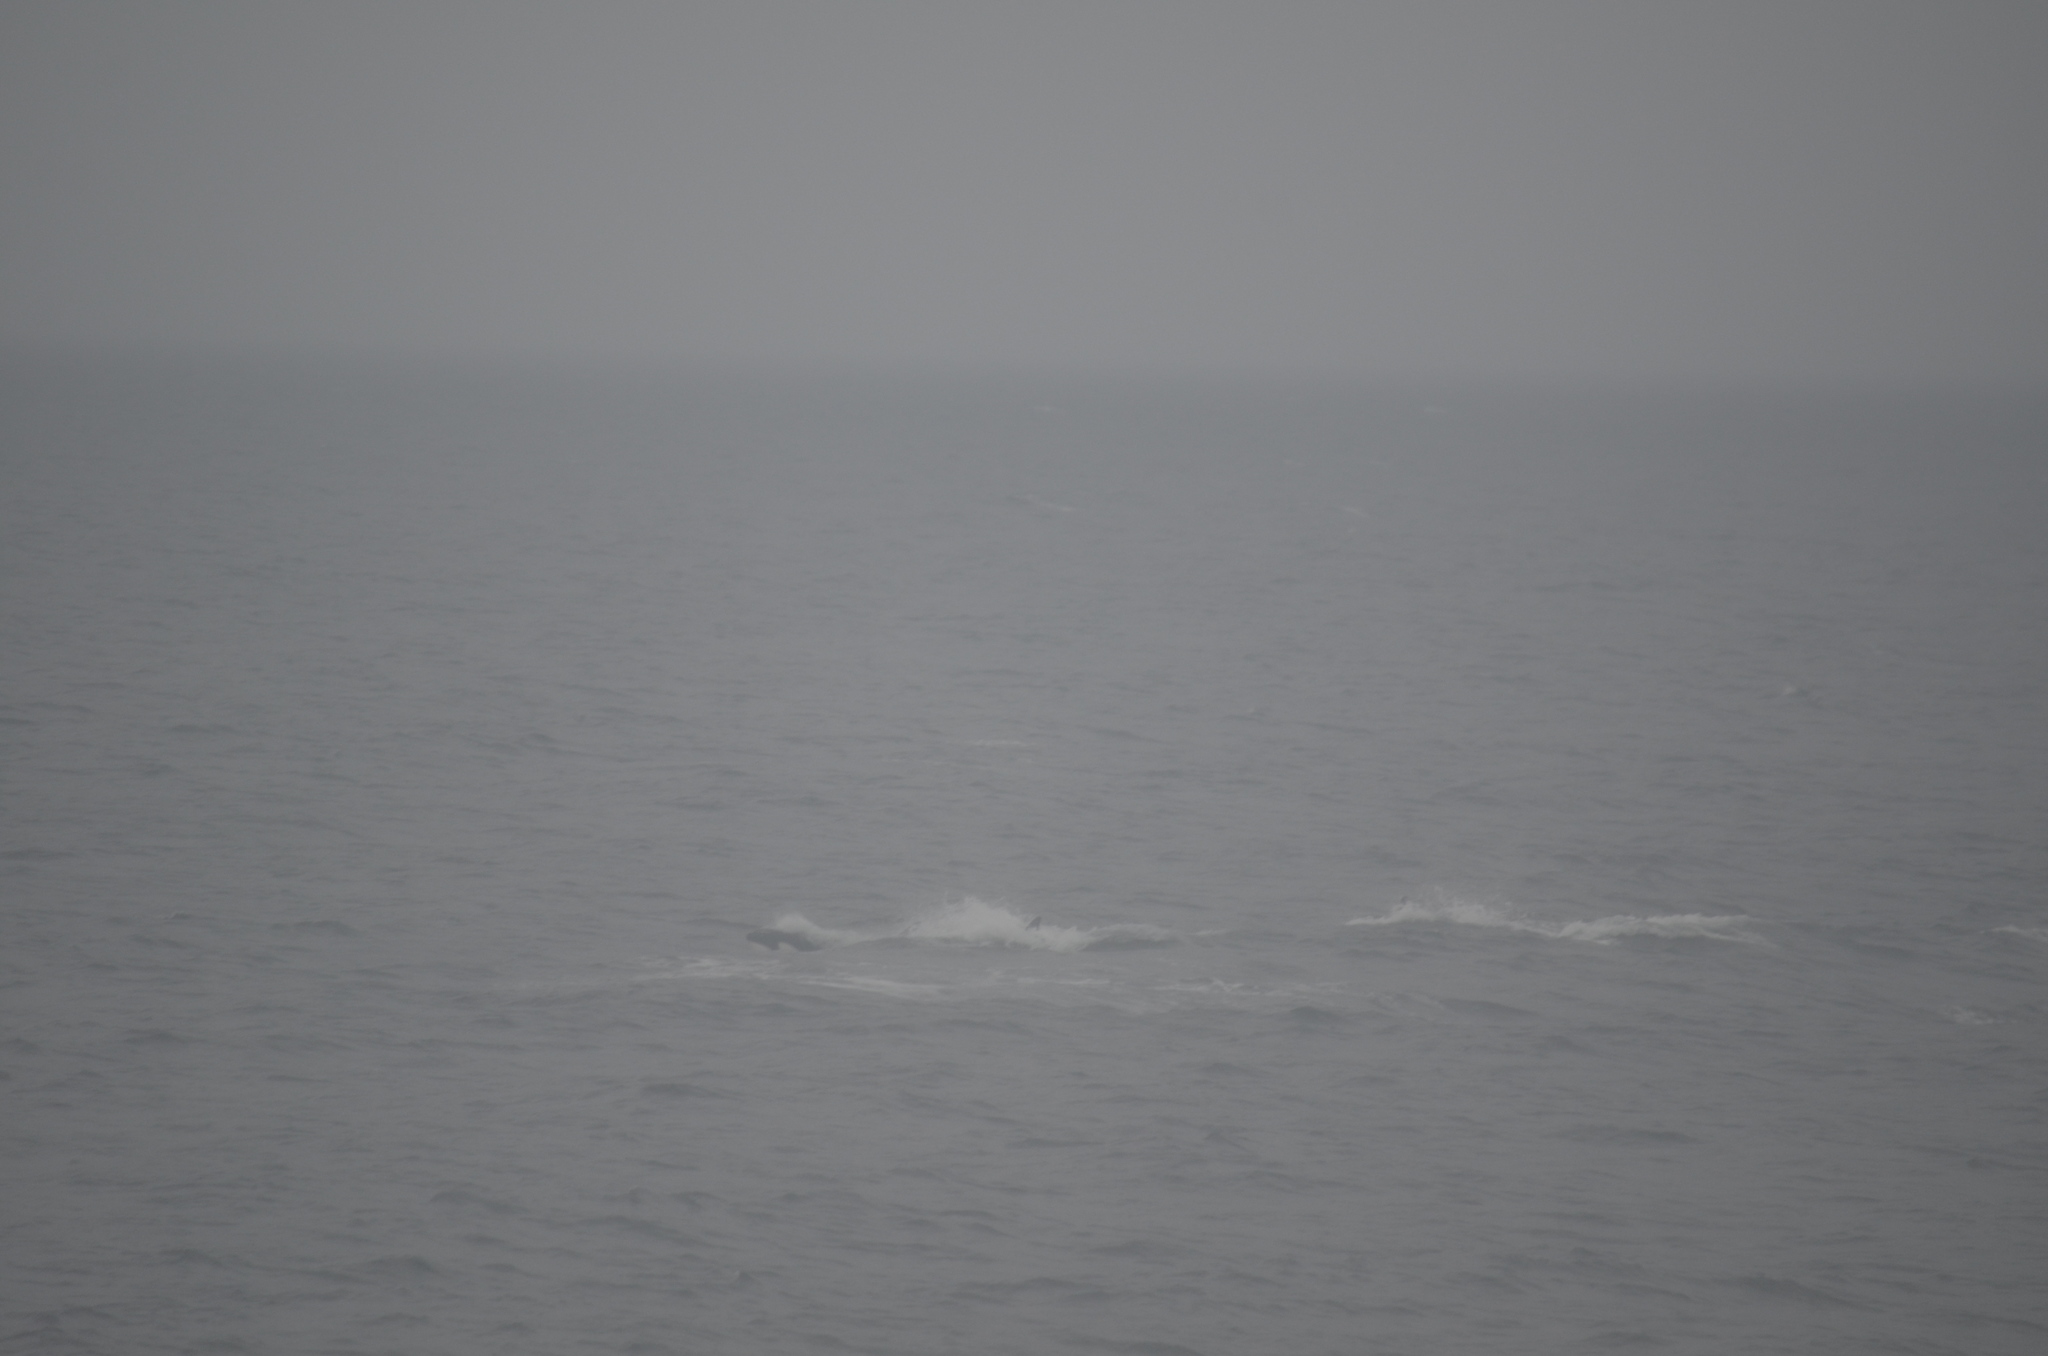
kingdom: Animalia
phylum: Chordata
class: Mammalia
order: Cetacea
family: Delphinidae
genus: Orcinus
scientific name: Orcinus orca
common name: Killer whale
